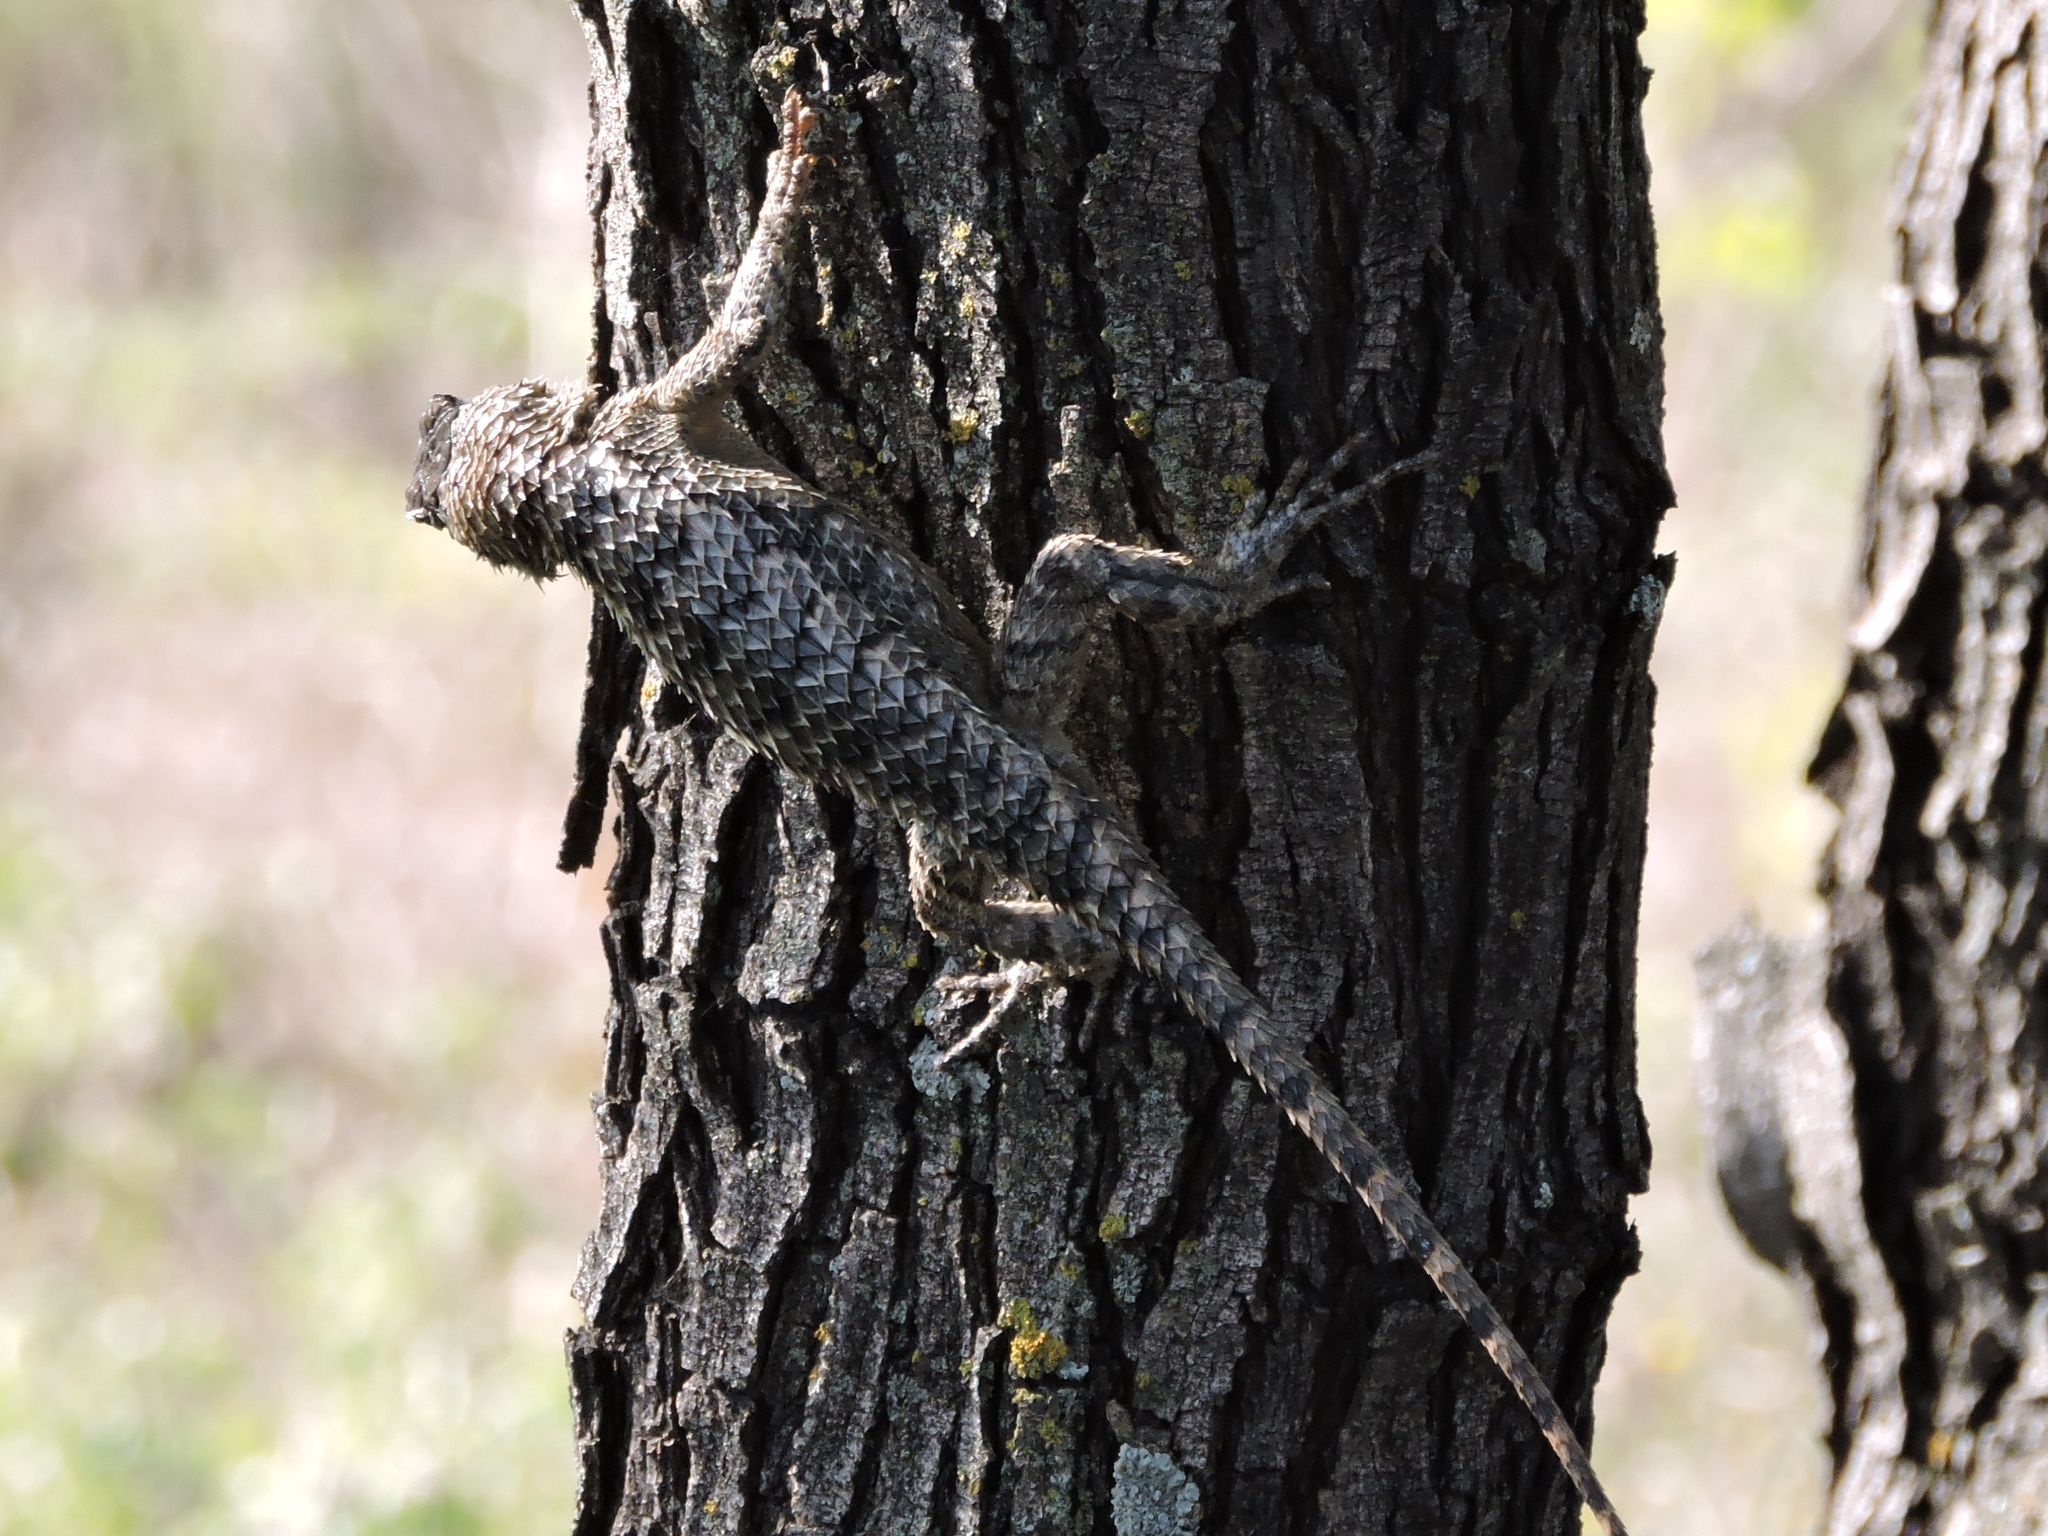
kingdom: Animalia
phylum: Chordata
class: Squamata
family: Phrynosomatidae
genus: Sceloporus
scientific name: Sceloporus olivaceus
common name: Texas spiny lizard
